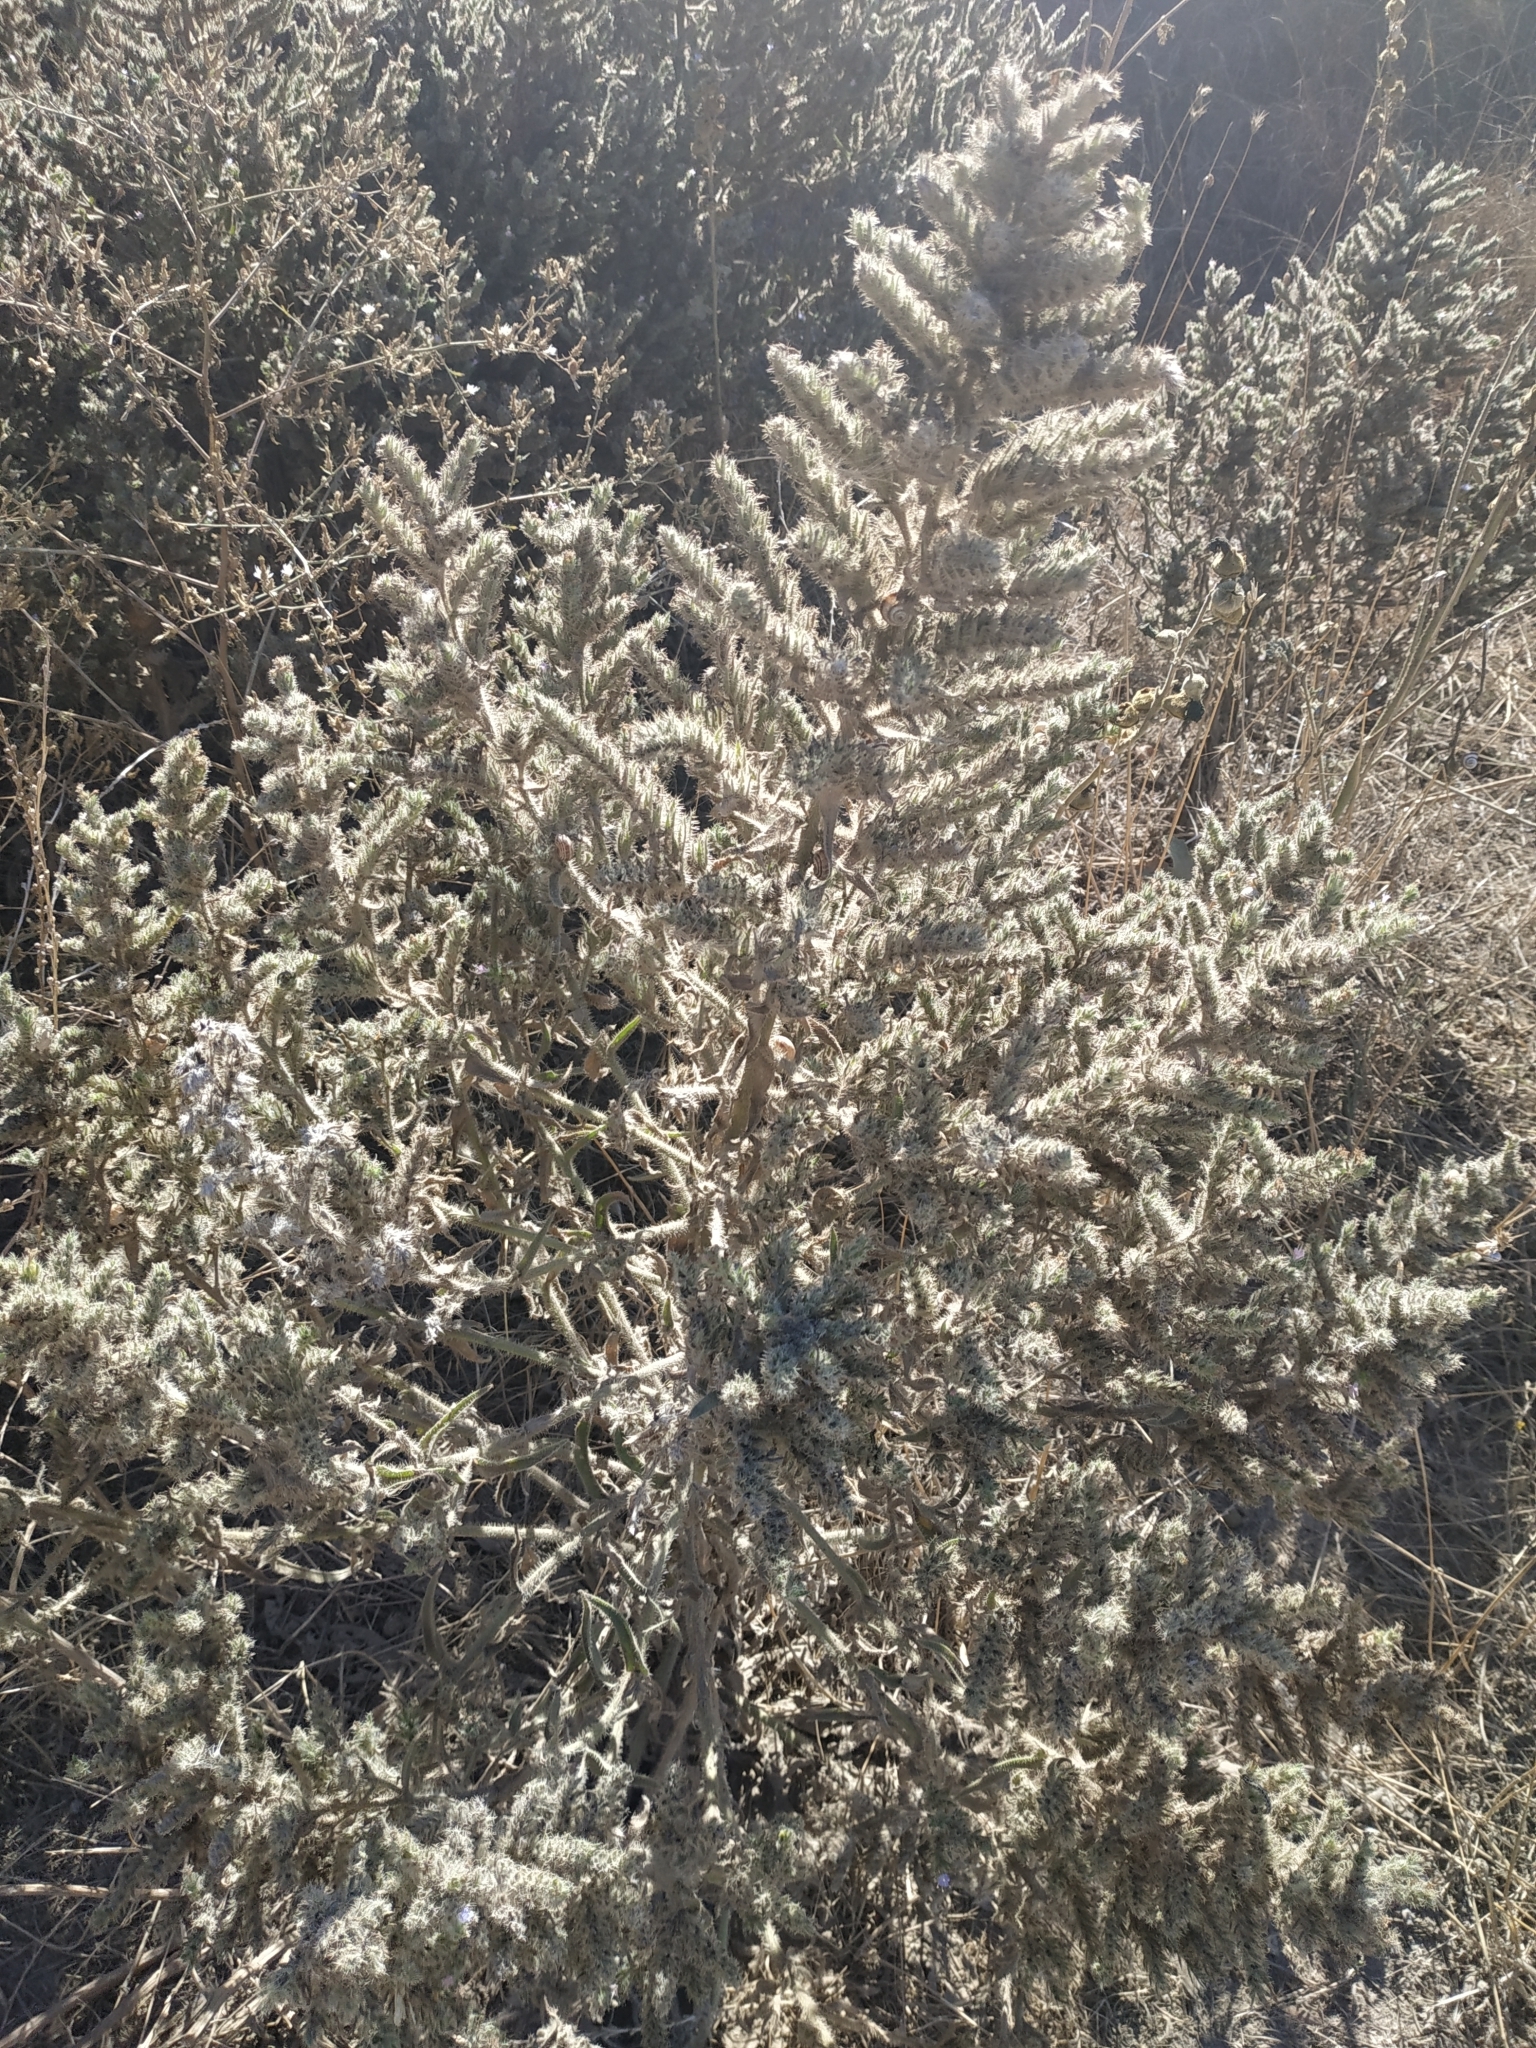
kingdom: Plantae
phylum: Tracheophyta
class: Magnoliopsida
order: Boraginales
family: Boraginaceae
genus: Echium
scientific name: Echium italicum
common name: Italian viper's bugloss
